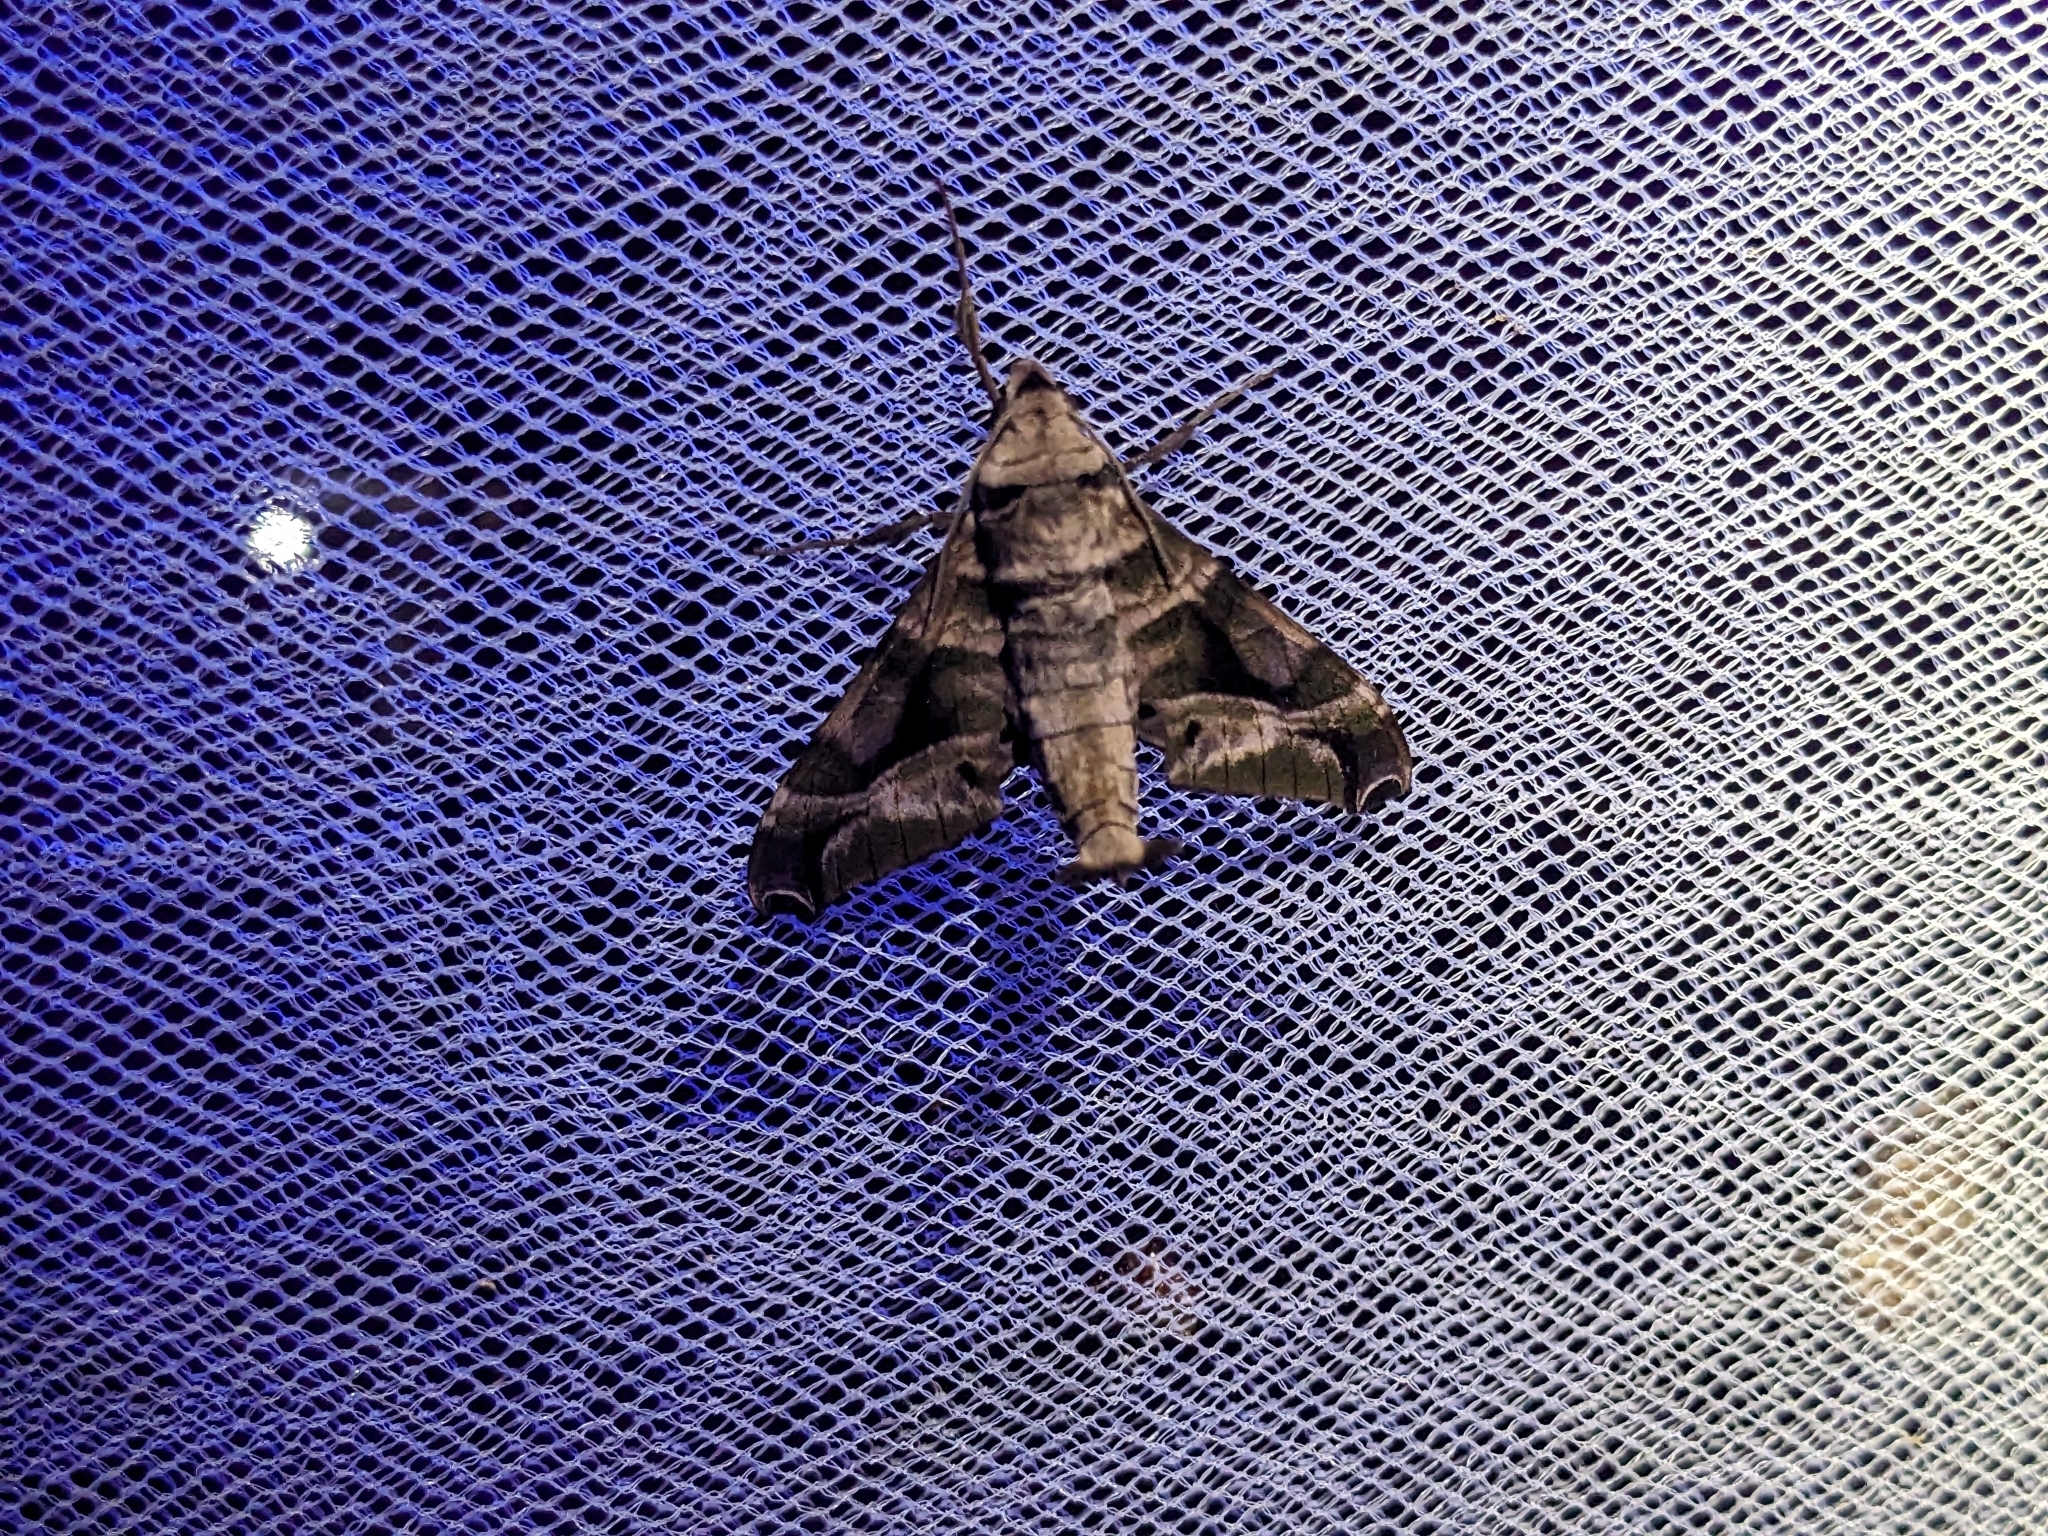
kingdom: Animalia
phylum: Arthropoda
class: Insecta
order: Lepidoptera
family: Sphingidae
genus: Craspedortha
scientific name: Craspedortha porphyria
